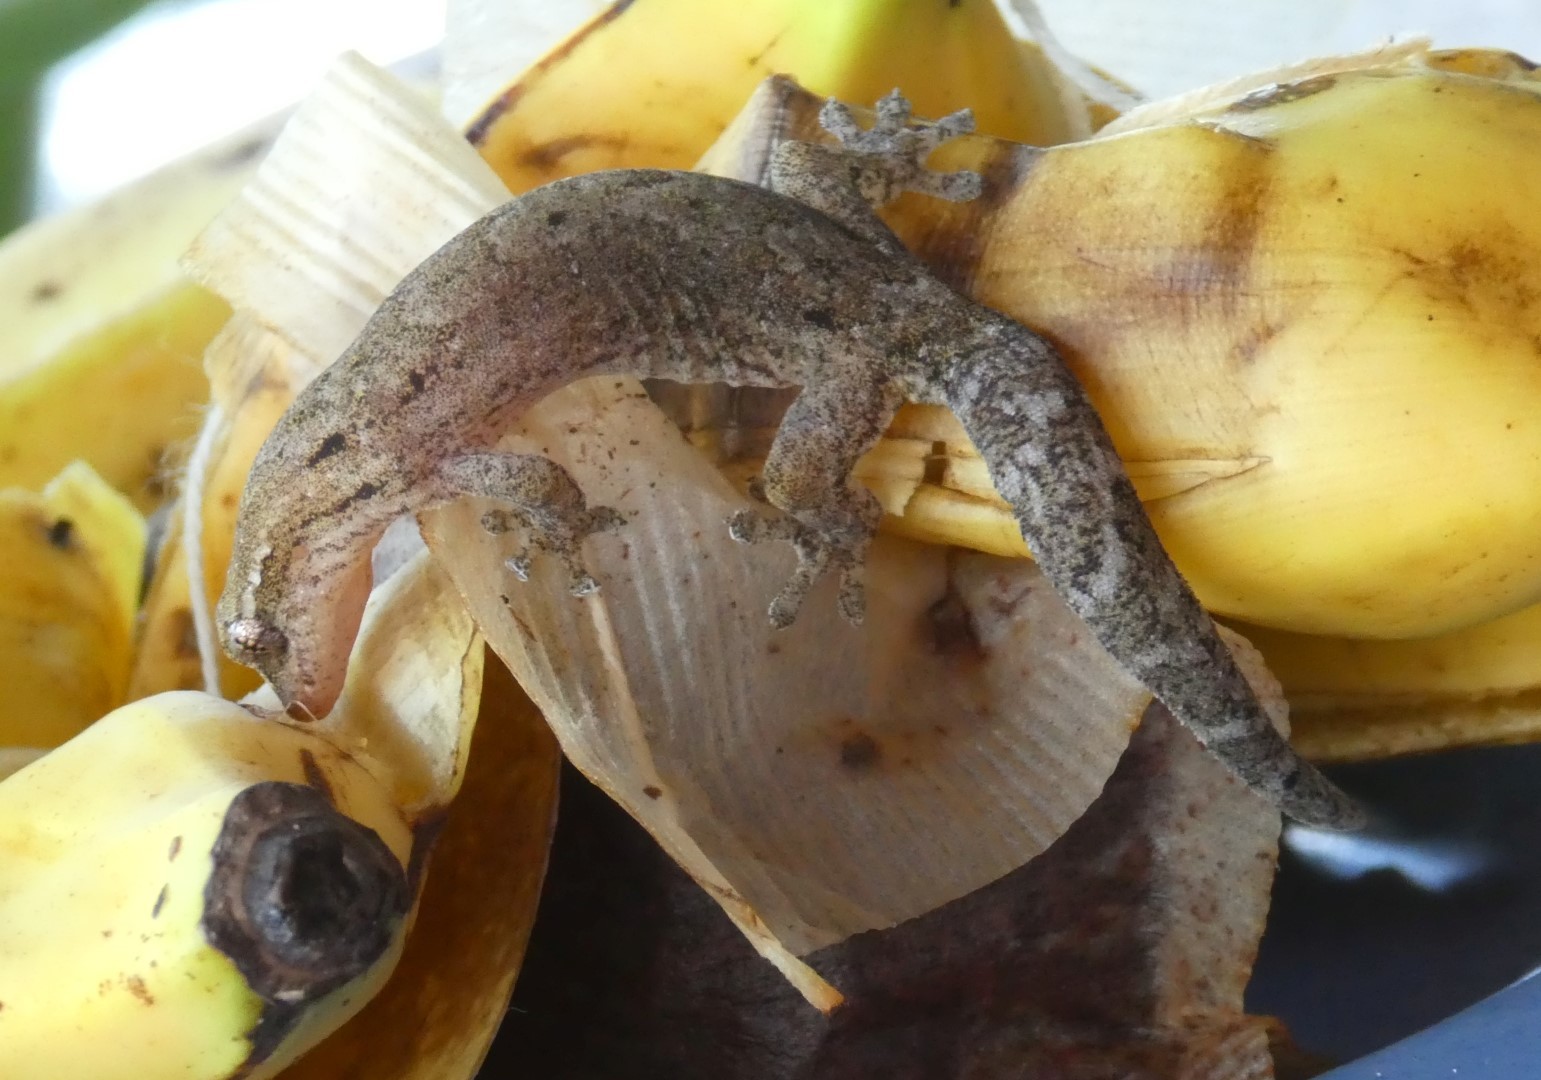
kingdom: Animalia
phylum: Chordata
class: Squamata
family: Gekkonidae
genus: Lepidodactylus
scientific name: Lepidodactylus lugubris
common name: Mourning gecko
